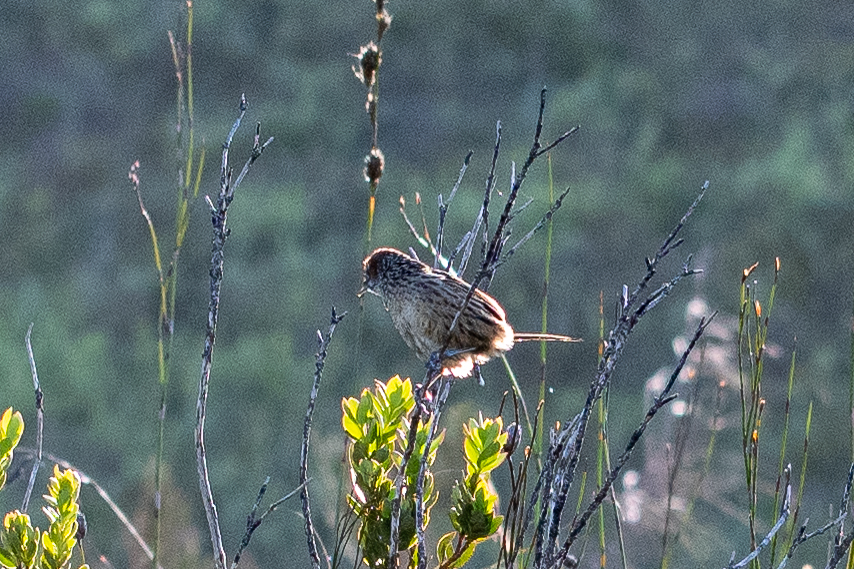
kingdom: Animalia
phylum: Chordata
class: Aves
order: Passeriformes
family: Macrosphenidae
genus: Sphenoeacus
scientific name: Sphenoeacus afer
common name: Cape grassbird
